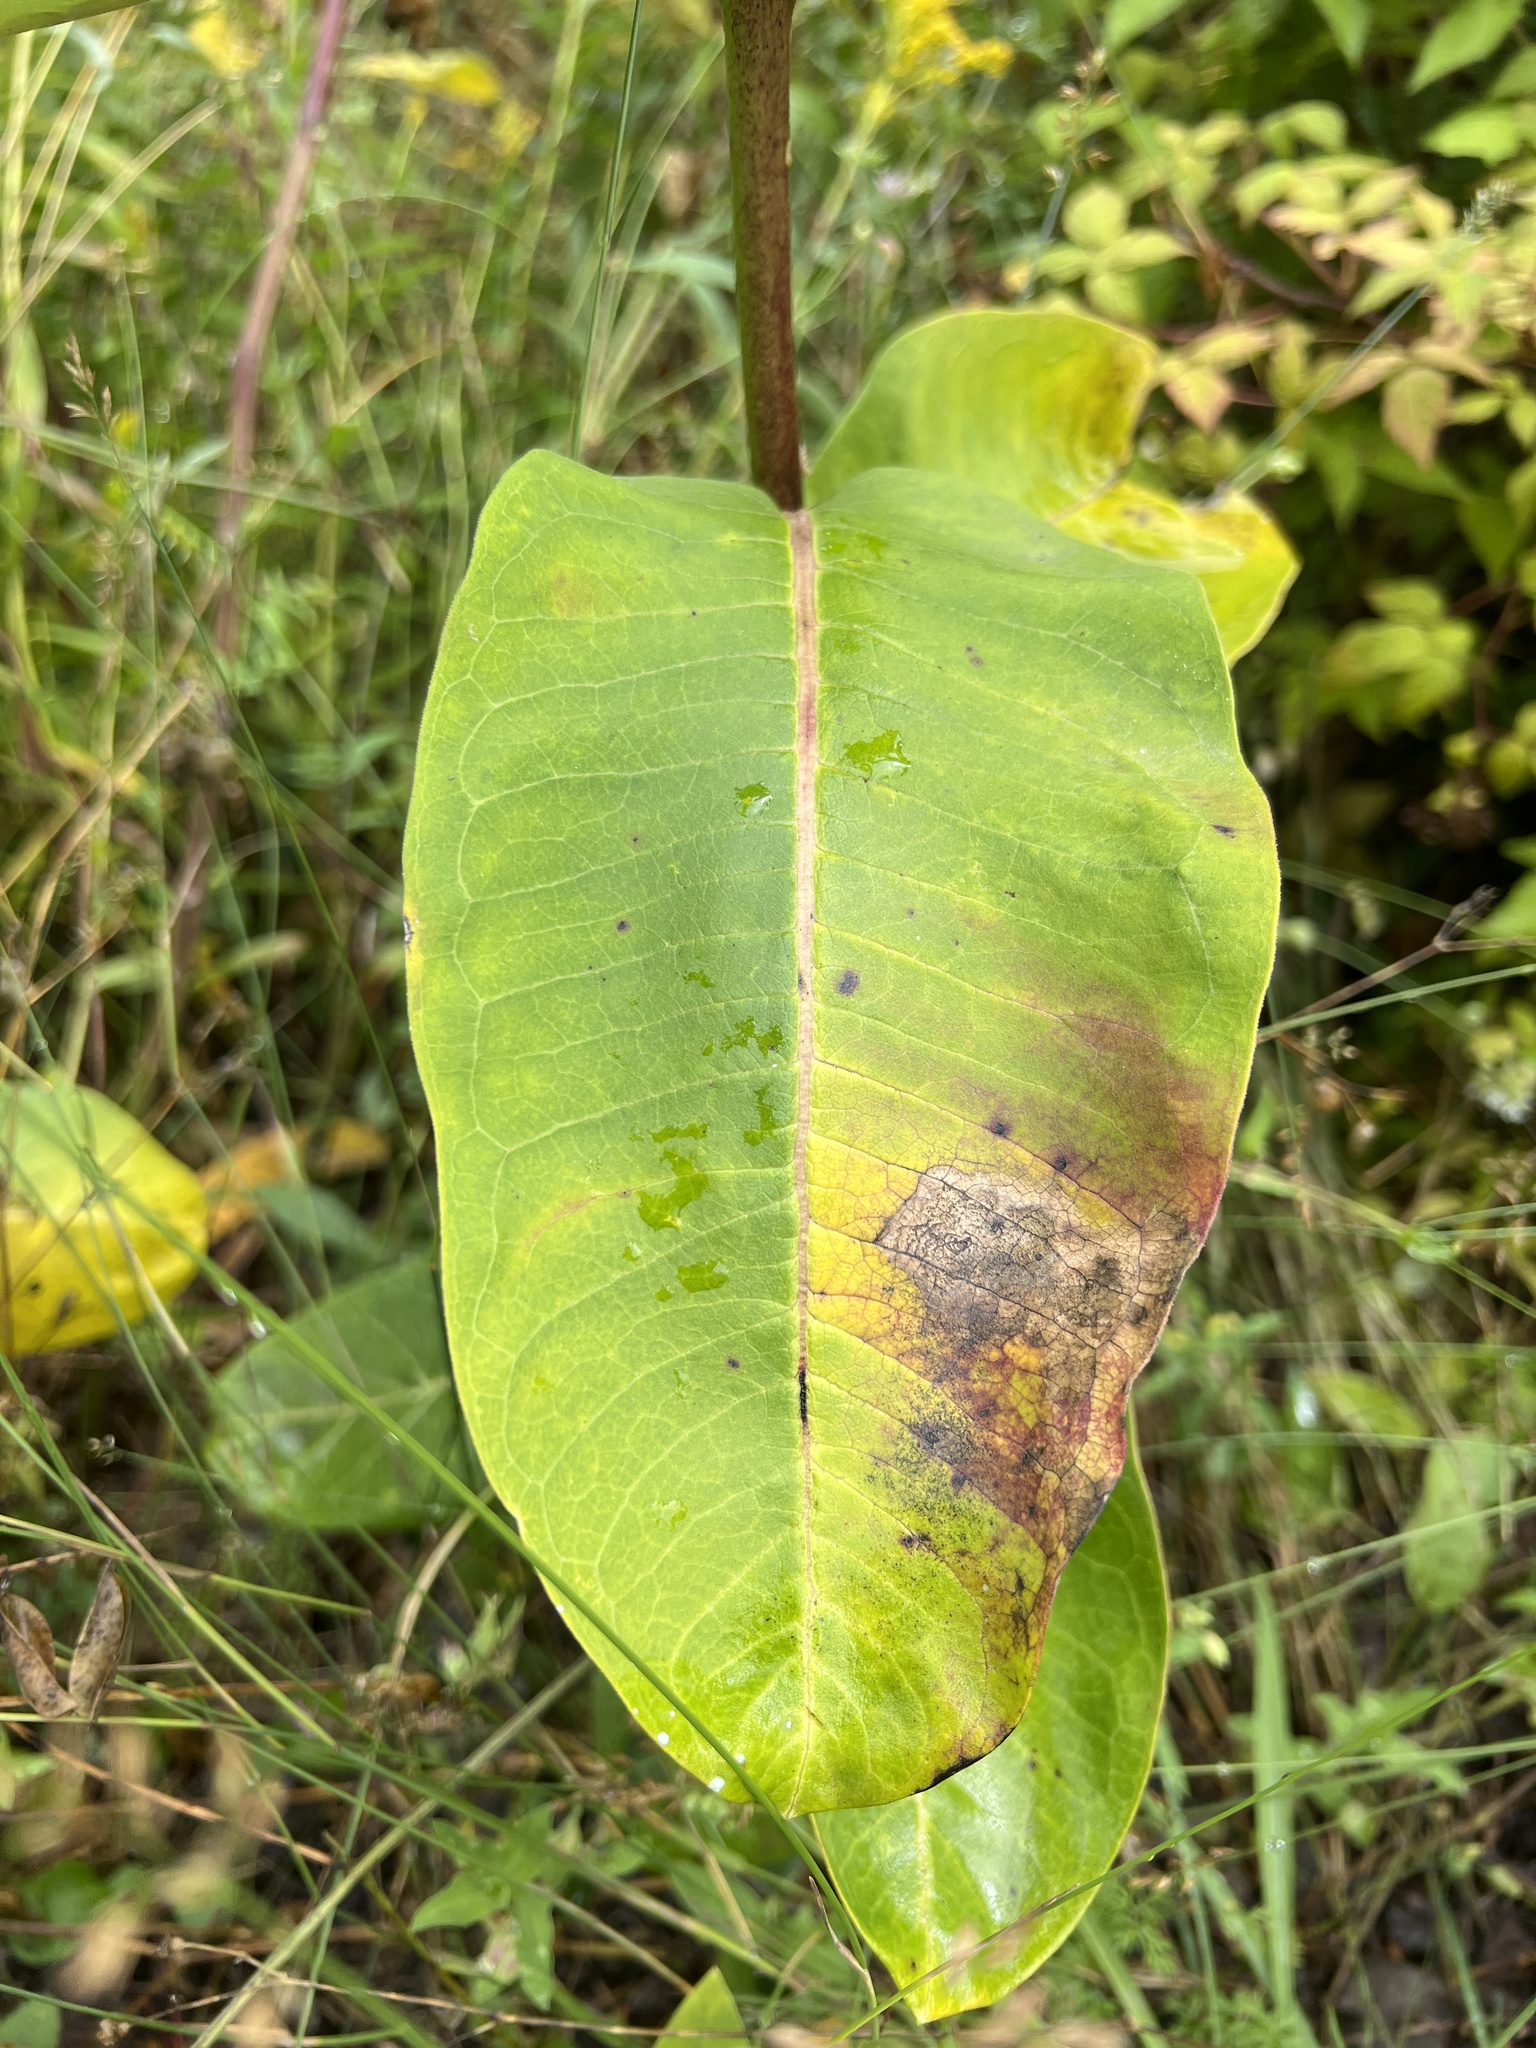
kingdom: Plantae
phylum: Tracheophyta
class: Magnoliopsida
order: Gentianales
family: Apocynaceae
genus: Asclepias
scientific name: Asclepias syriaca
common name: Common milkweed
